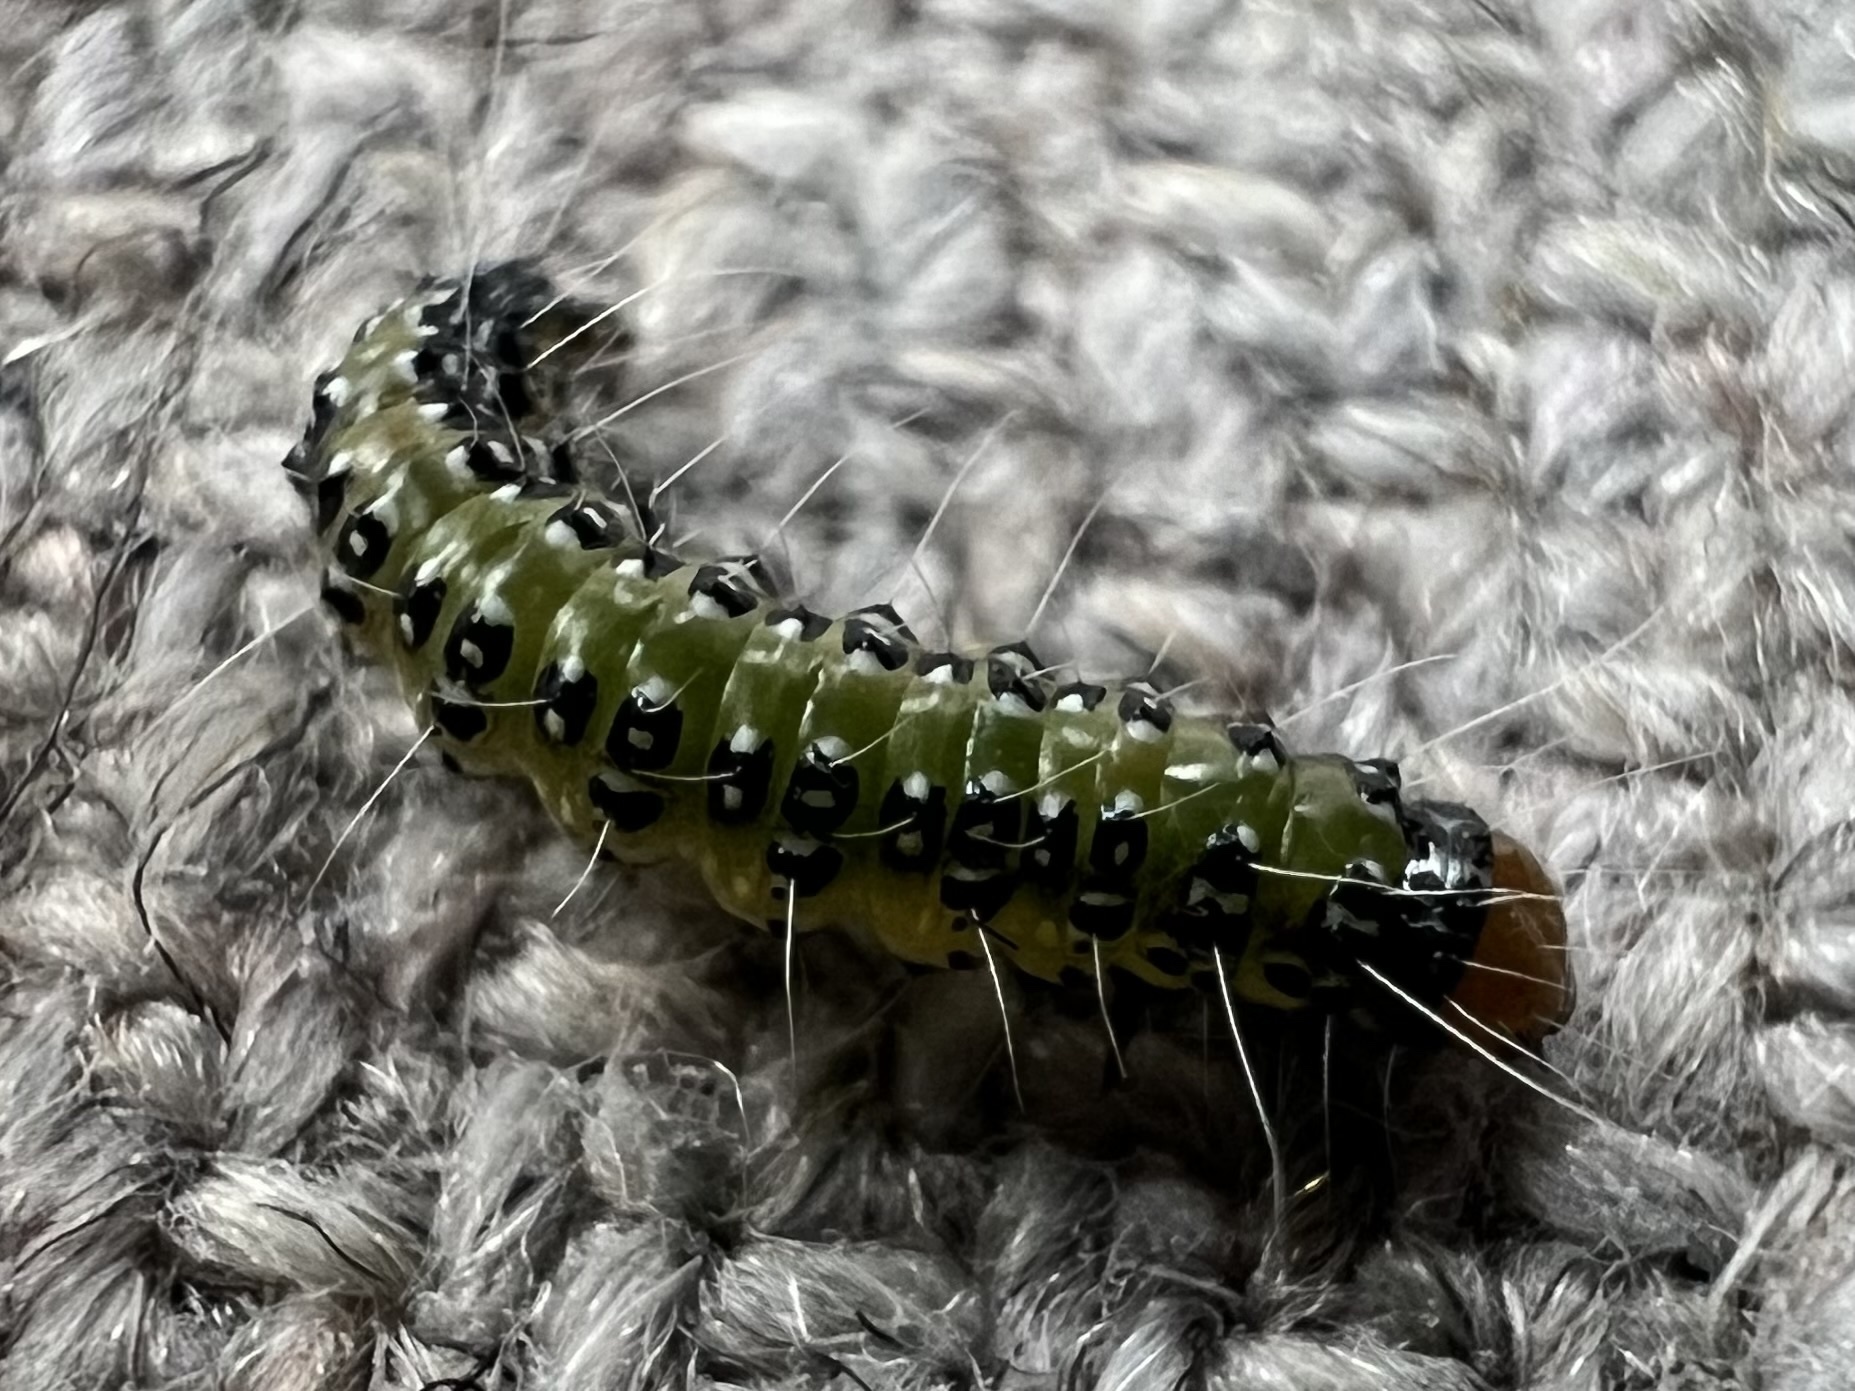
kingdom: Animalia
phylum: Arthropoda
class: Insecta
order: Lepidoptera
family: Crambidae
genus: Uresiphita
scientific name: Uresiphita
